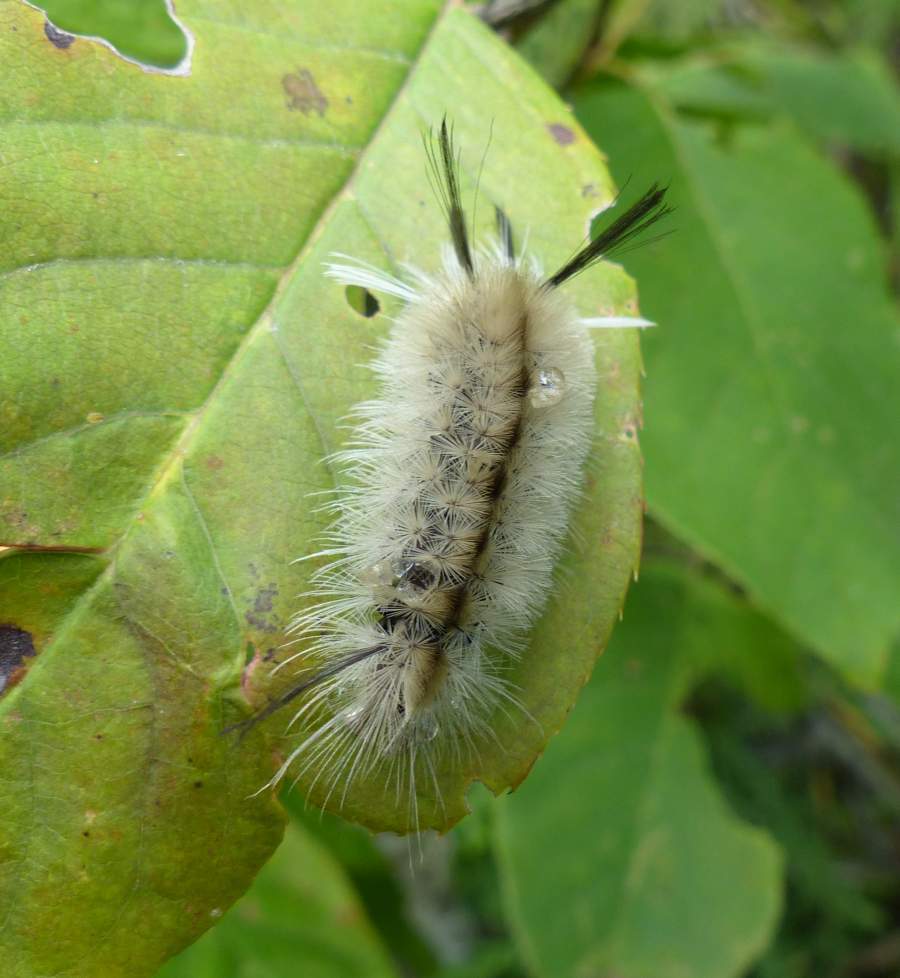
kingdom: Animalia
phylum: Arthropoda
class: Insecta
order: Lepidoptera
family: Erebidae
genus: Halysidota
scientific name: Halysidota tessellaris
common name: Banded tussock moth
